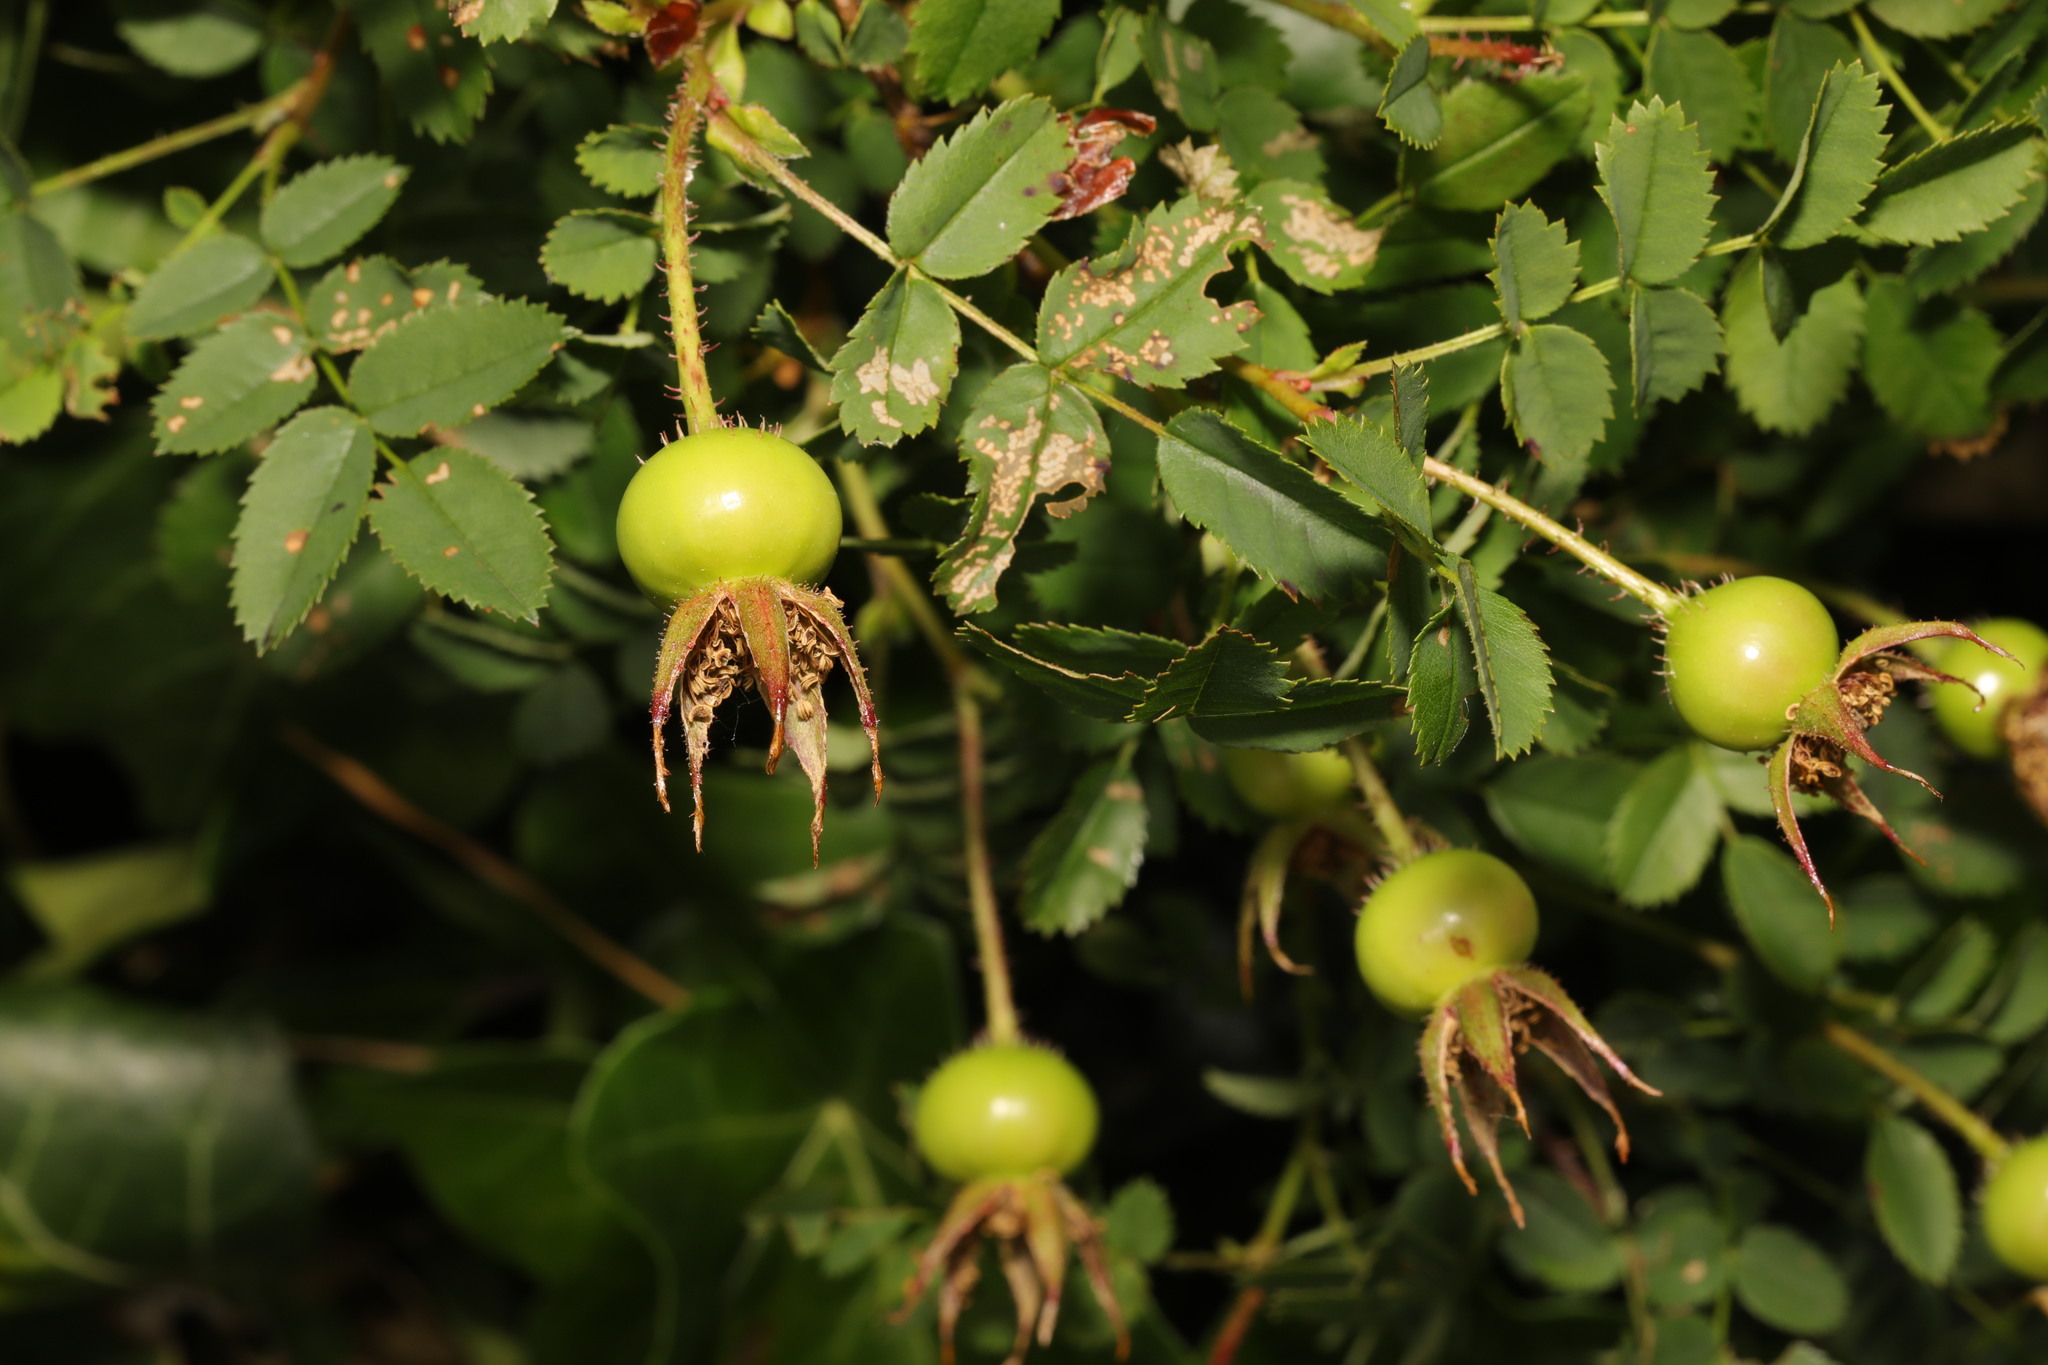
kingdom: Plantae
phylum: Tracheophyta
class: Magnoliopsida
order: Rosales
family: Rosaceae
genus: Rosa
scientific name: Rosa spinosissima
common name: Burnet rose
